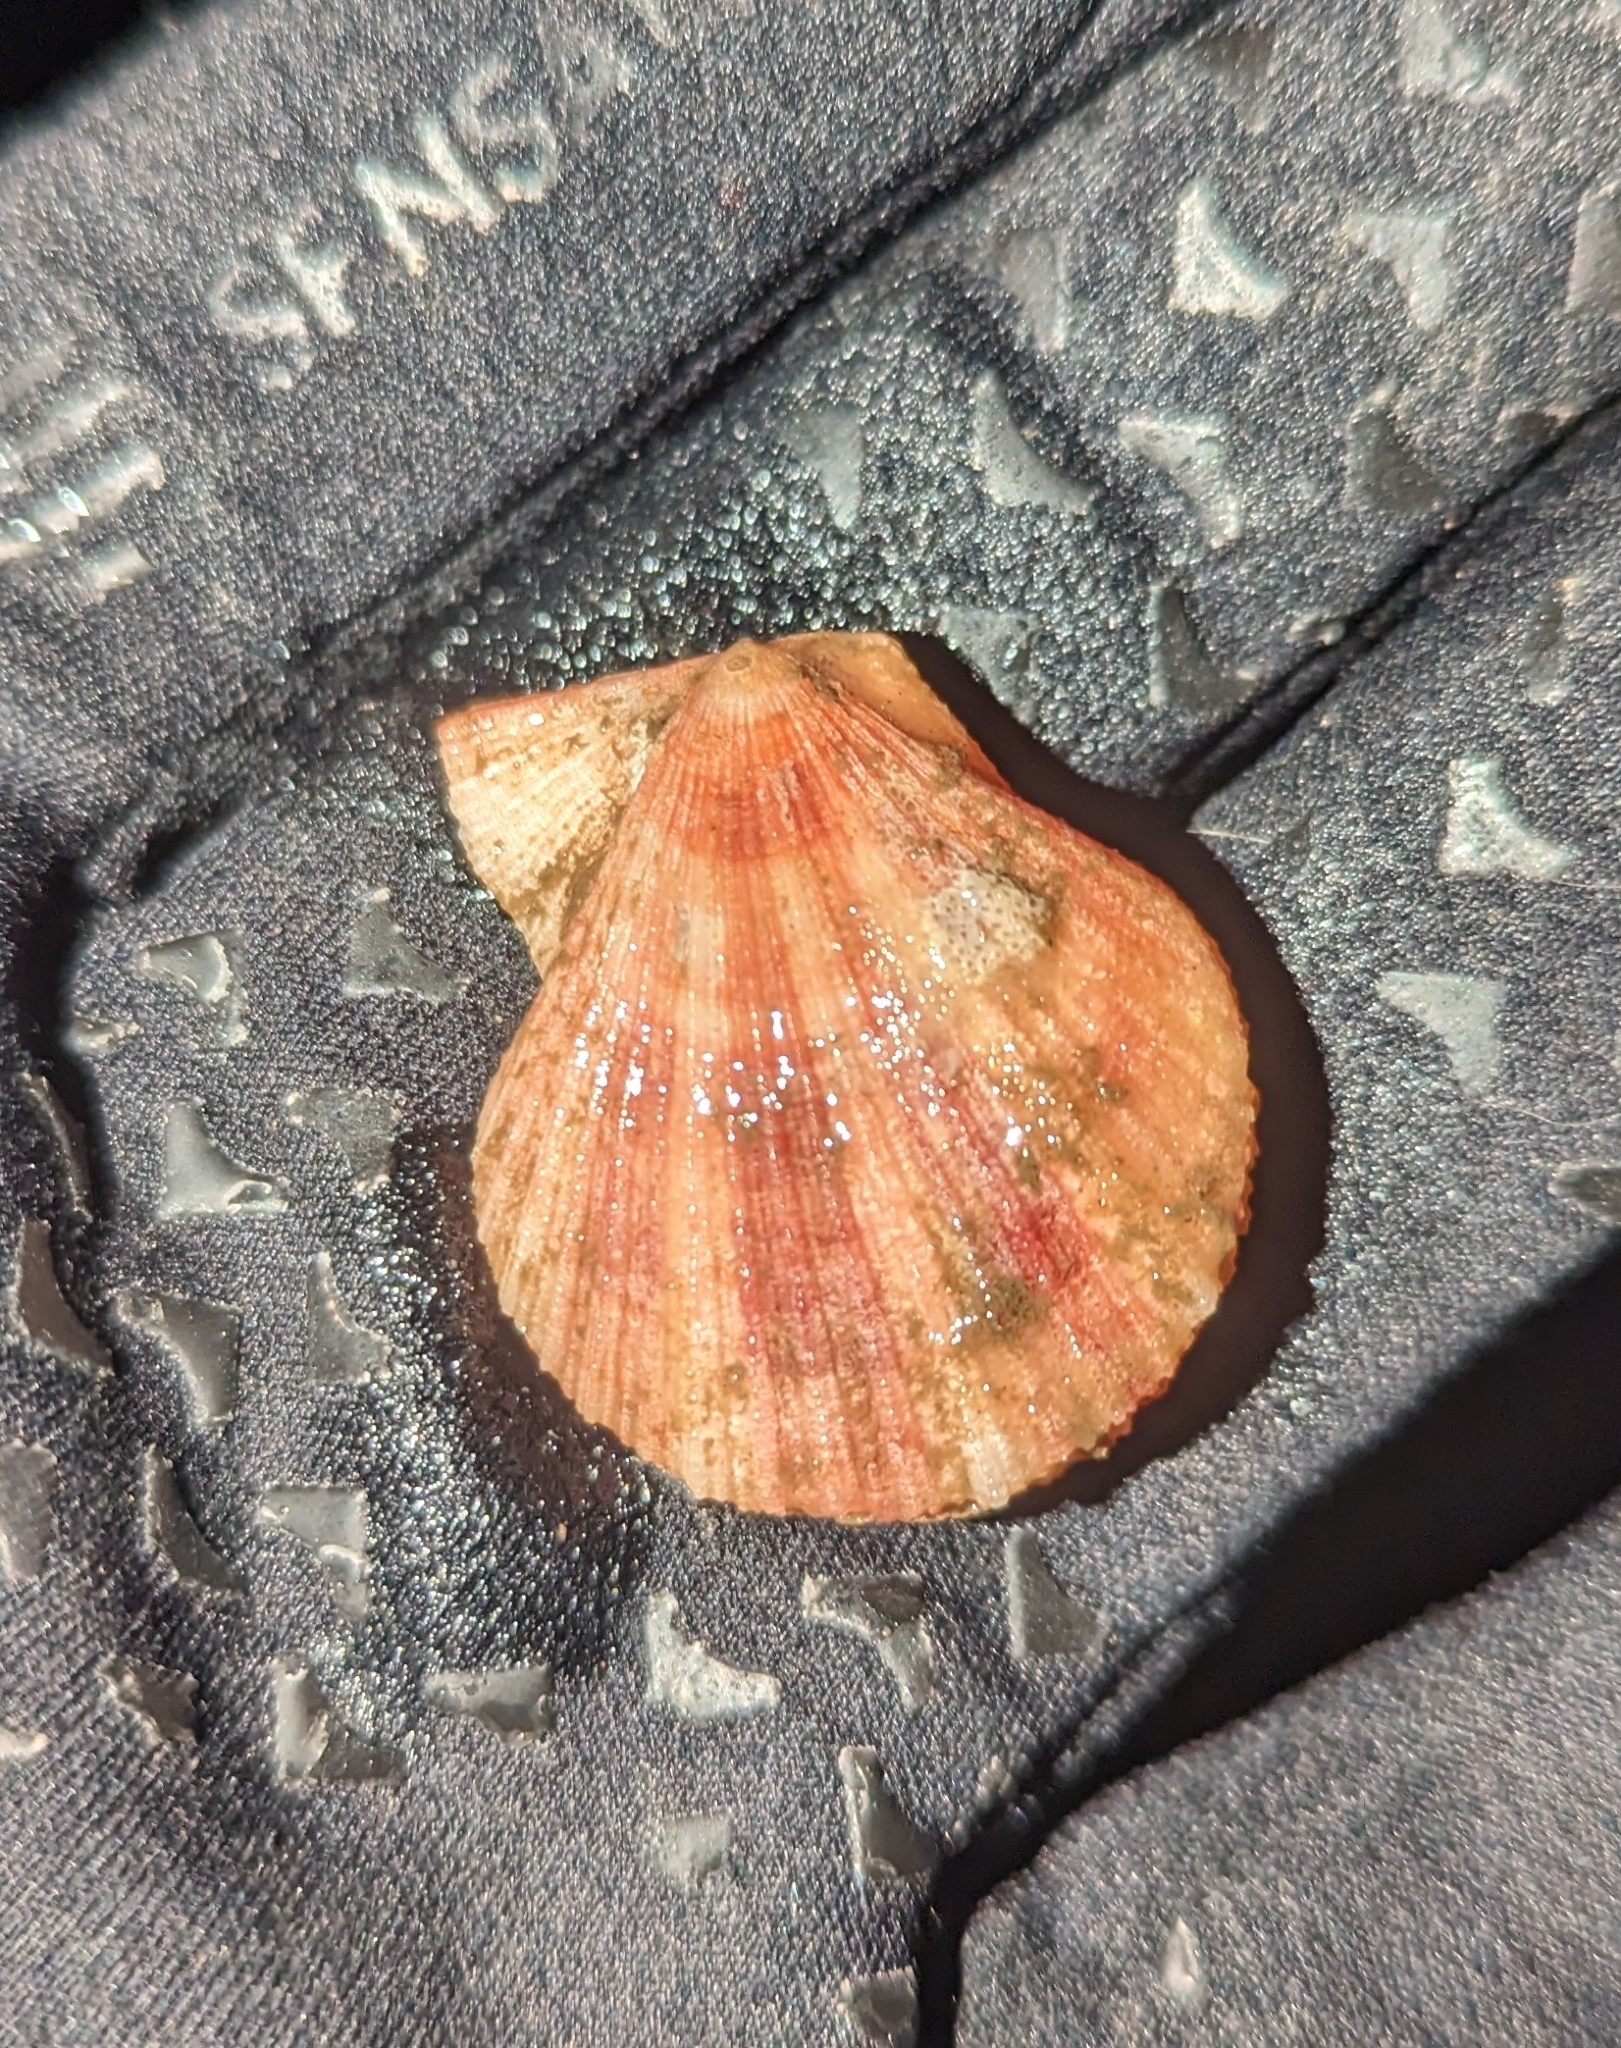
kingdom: Animalia
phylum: Mollusca
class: Bivalvia
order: Pectinida
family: Pectinidae
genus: Chlamys
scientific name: Chlamys hastata
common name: Spear scallop
